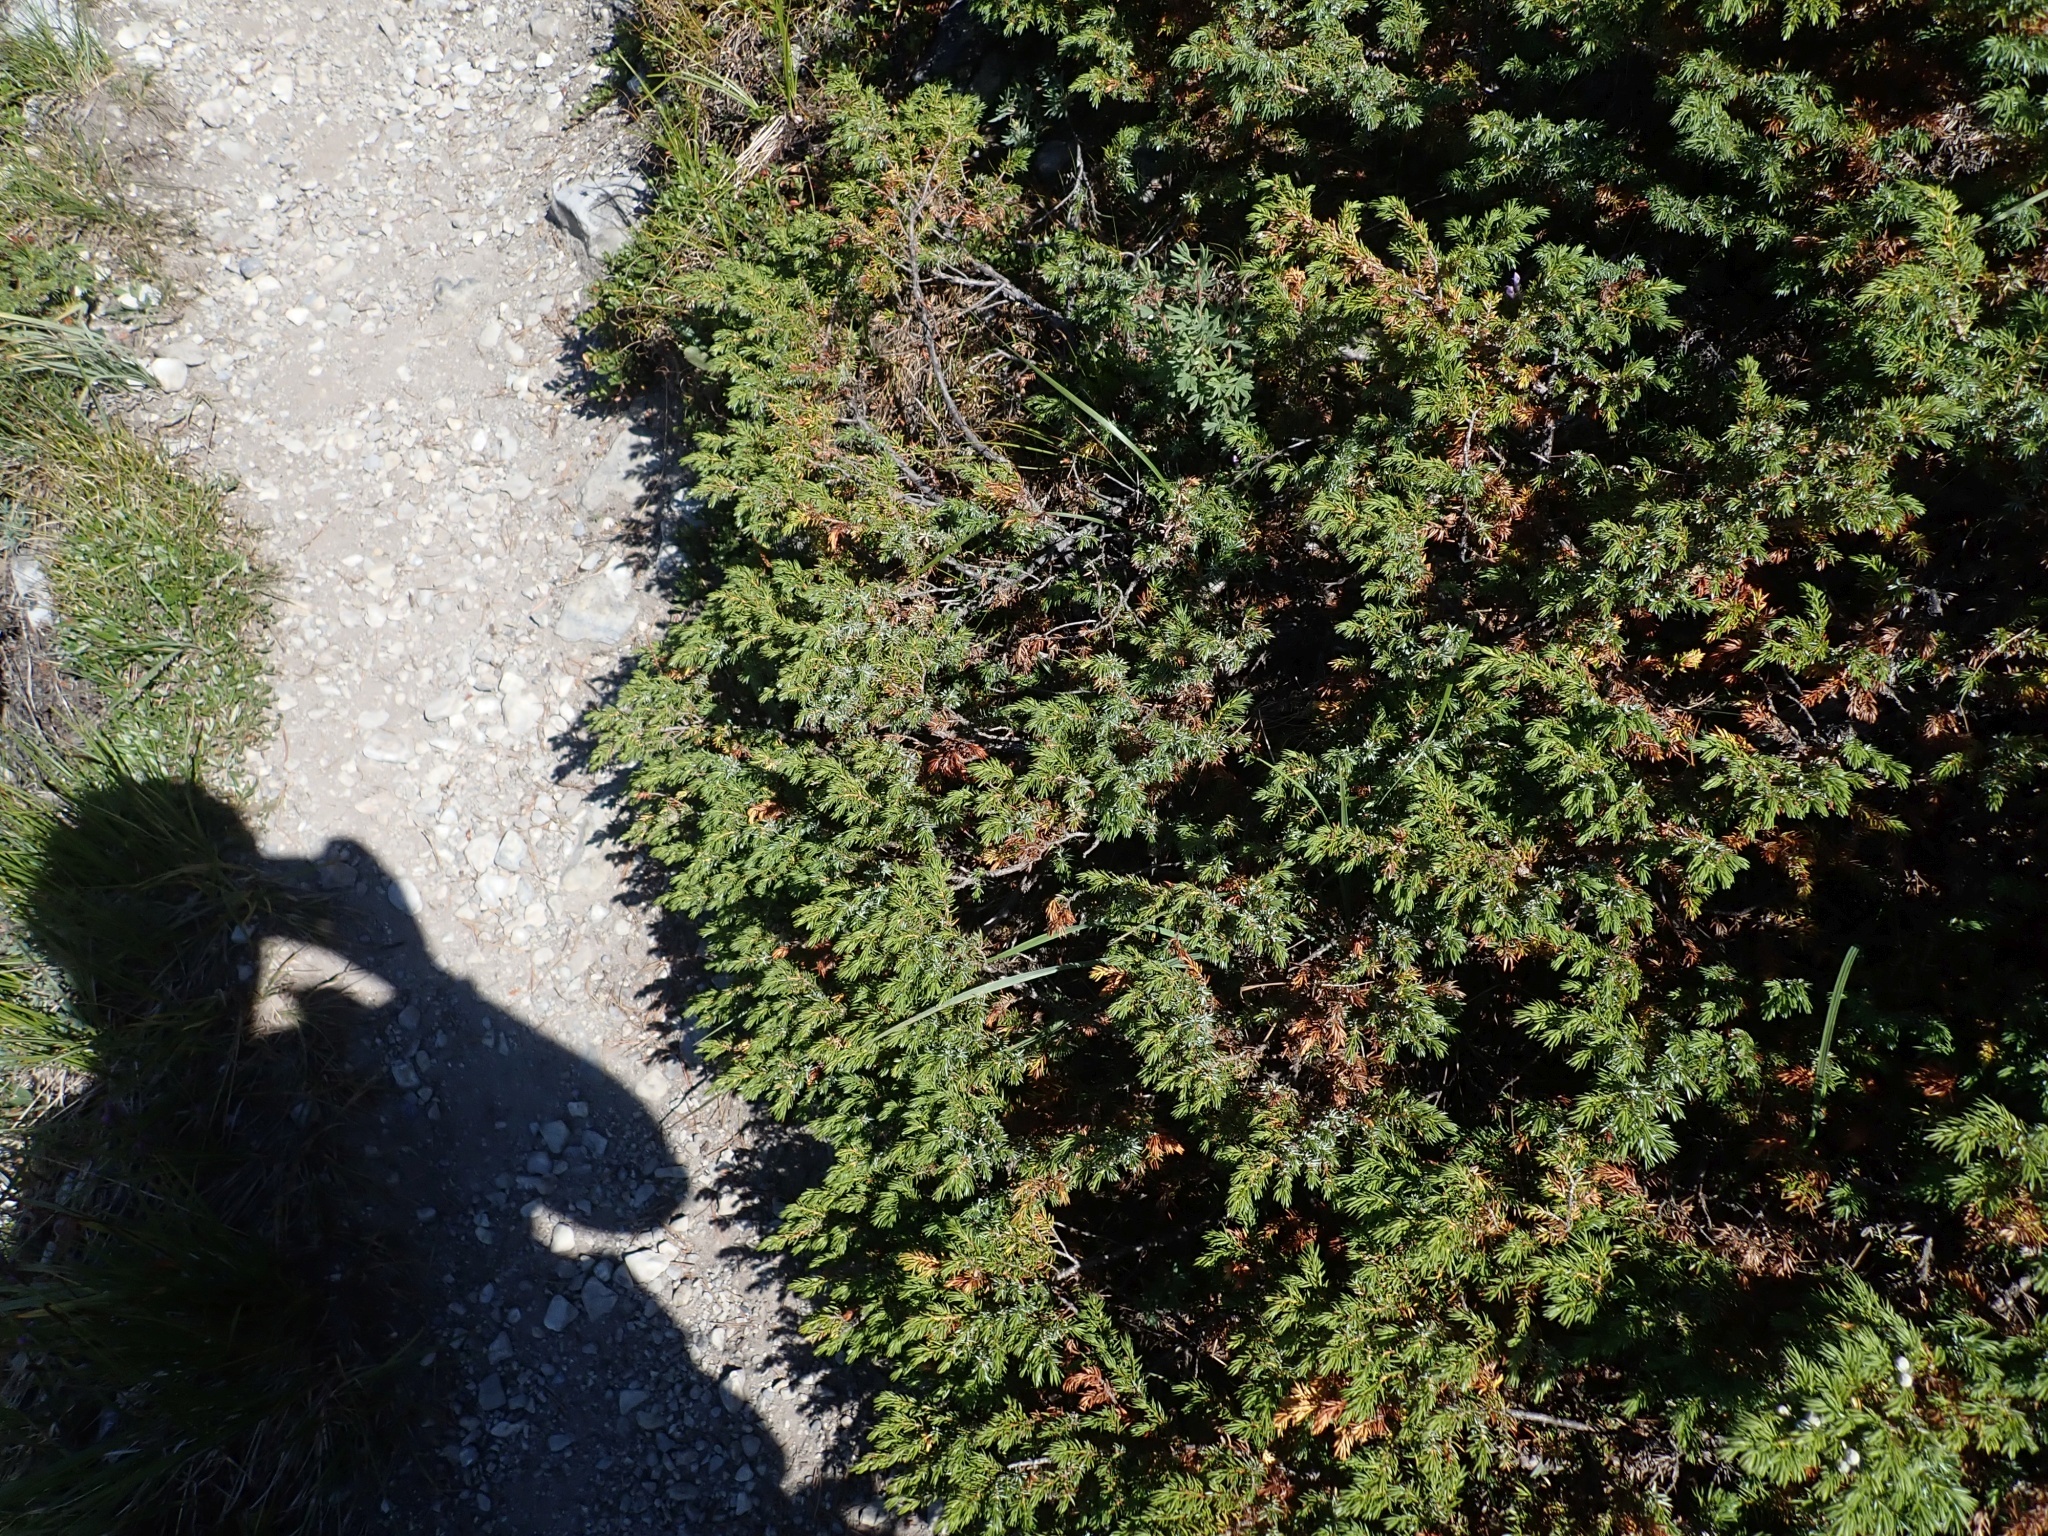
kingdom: Plantae
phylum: Tracheophyta
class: Pinopsida
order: Pinales
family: Cupressaceae
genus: Juniperus
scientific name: Juniperus communis
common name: Common juniper
